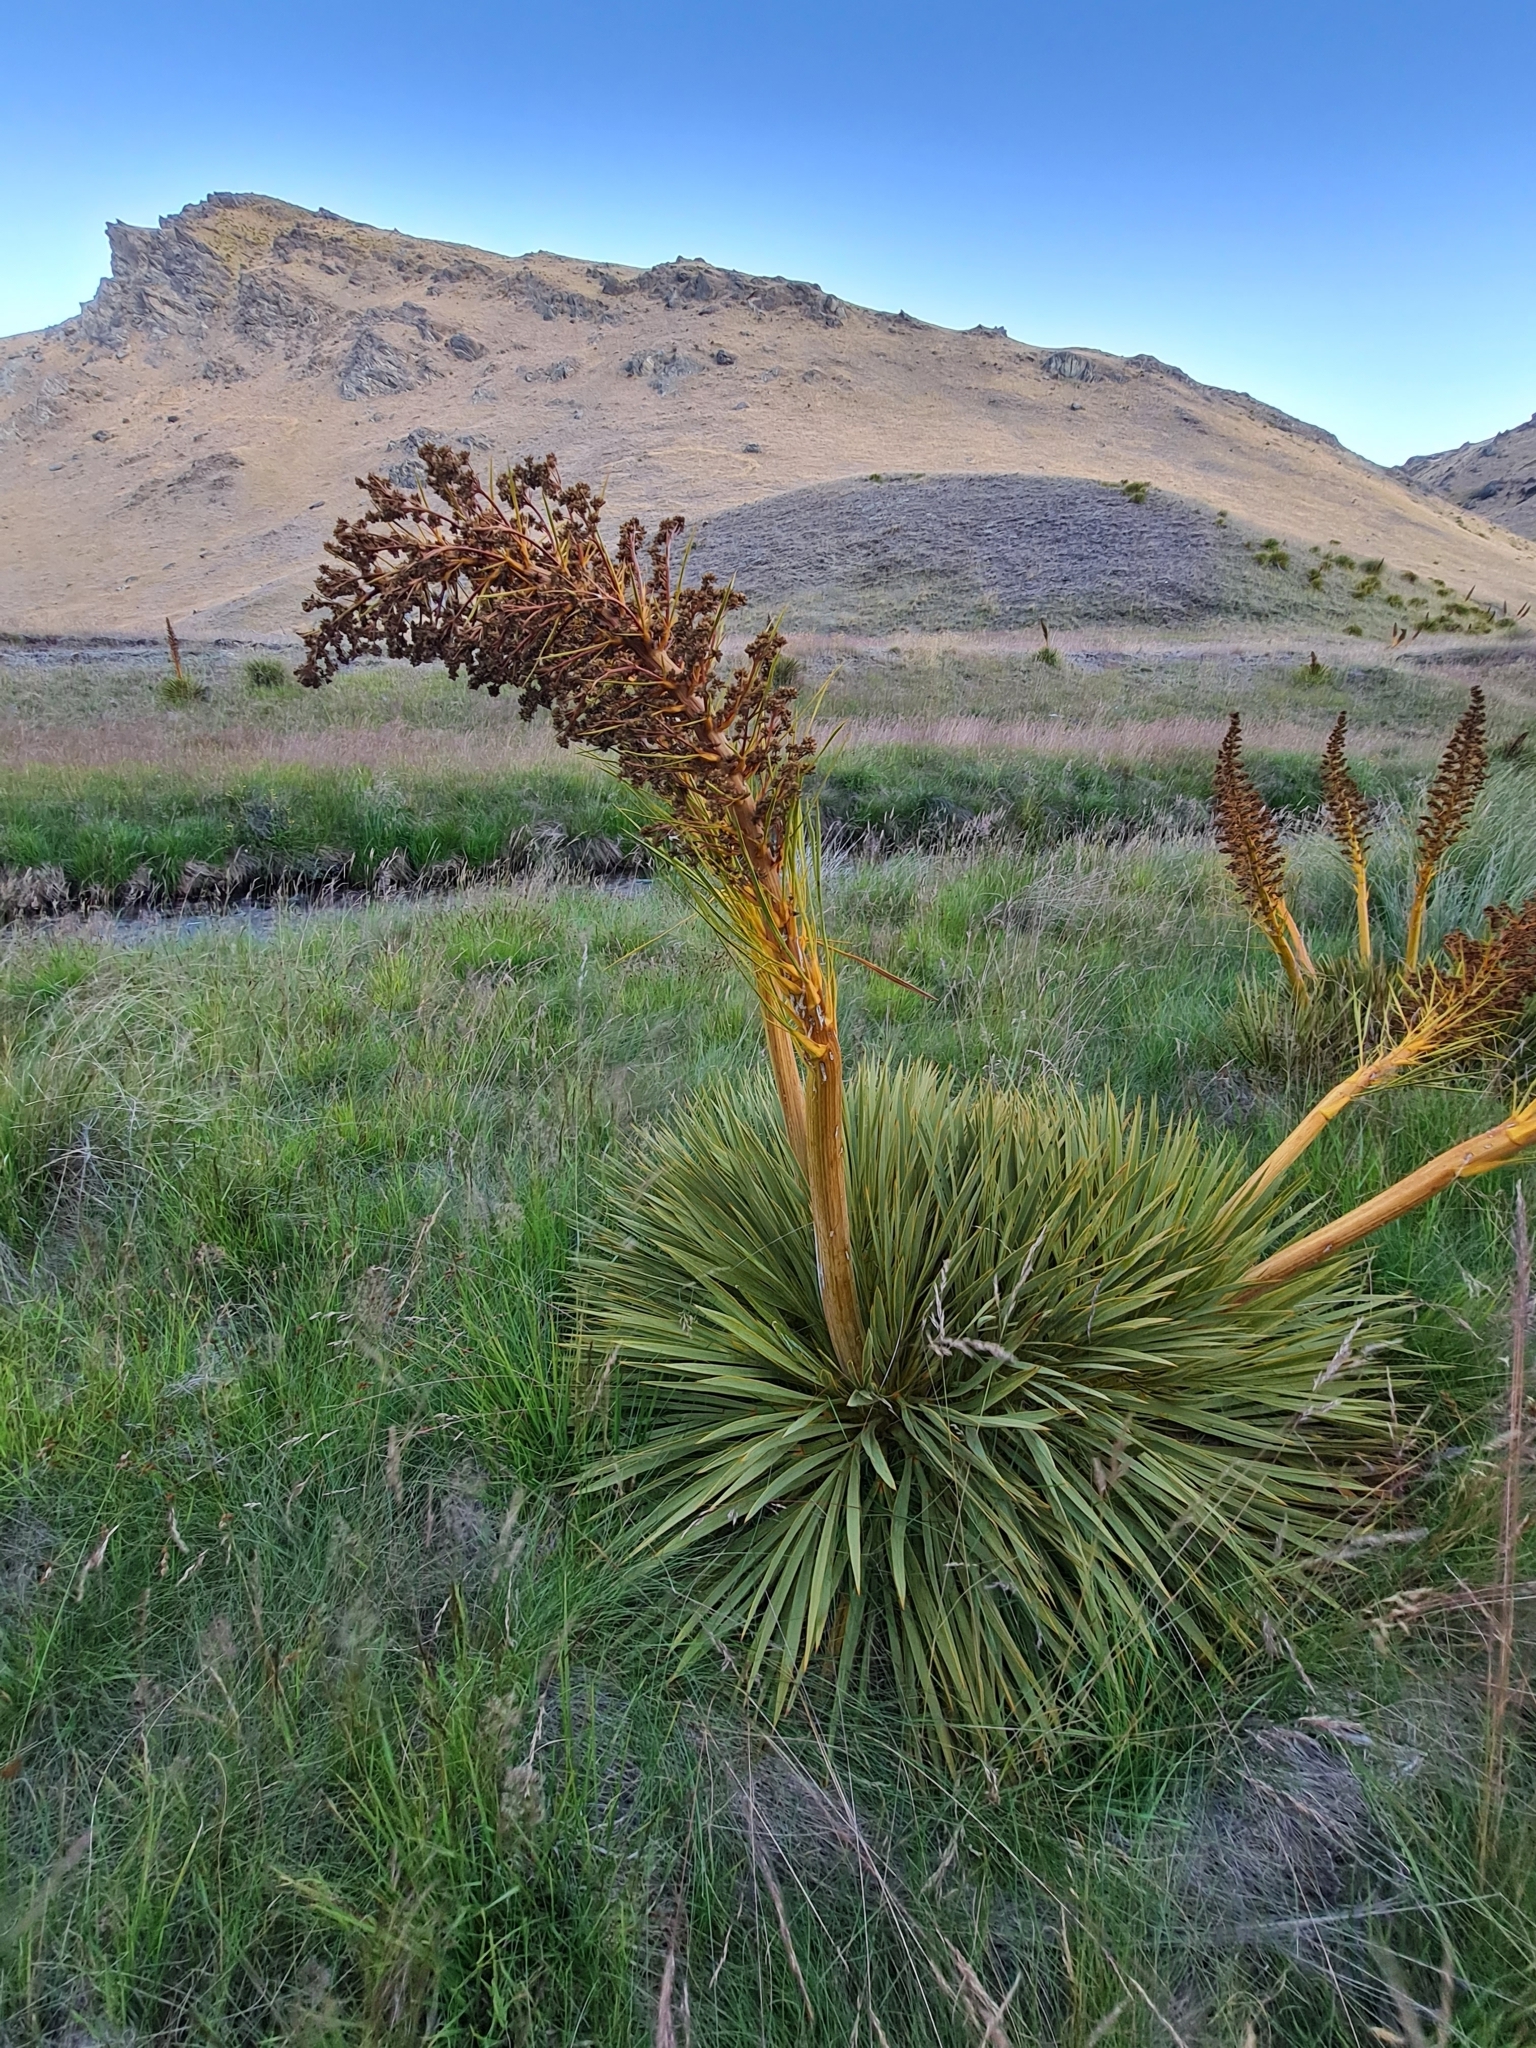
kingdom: Plantae
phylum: Tracheophyta
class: Magnoliopsida
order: Apiales
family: Apiaceae
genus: Aciphylla
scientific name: Aciphylla aurea
